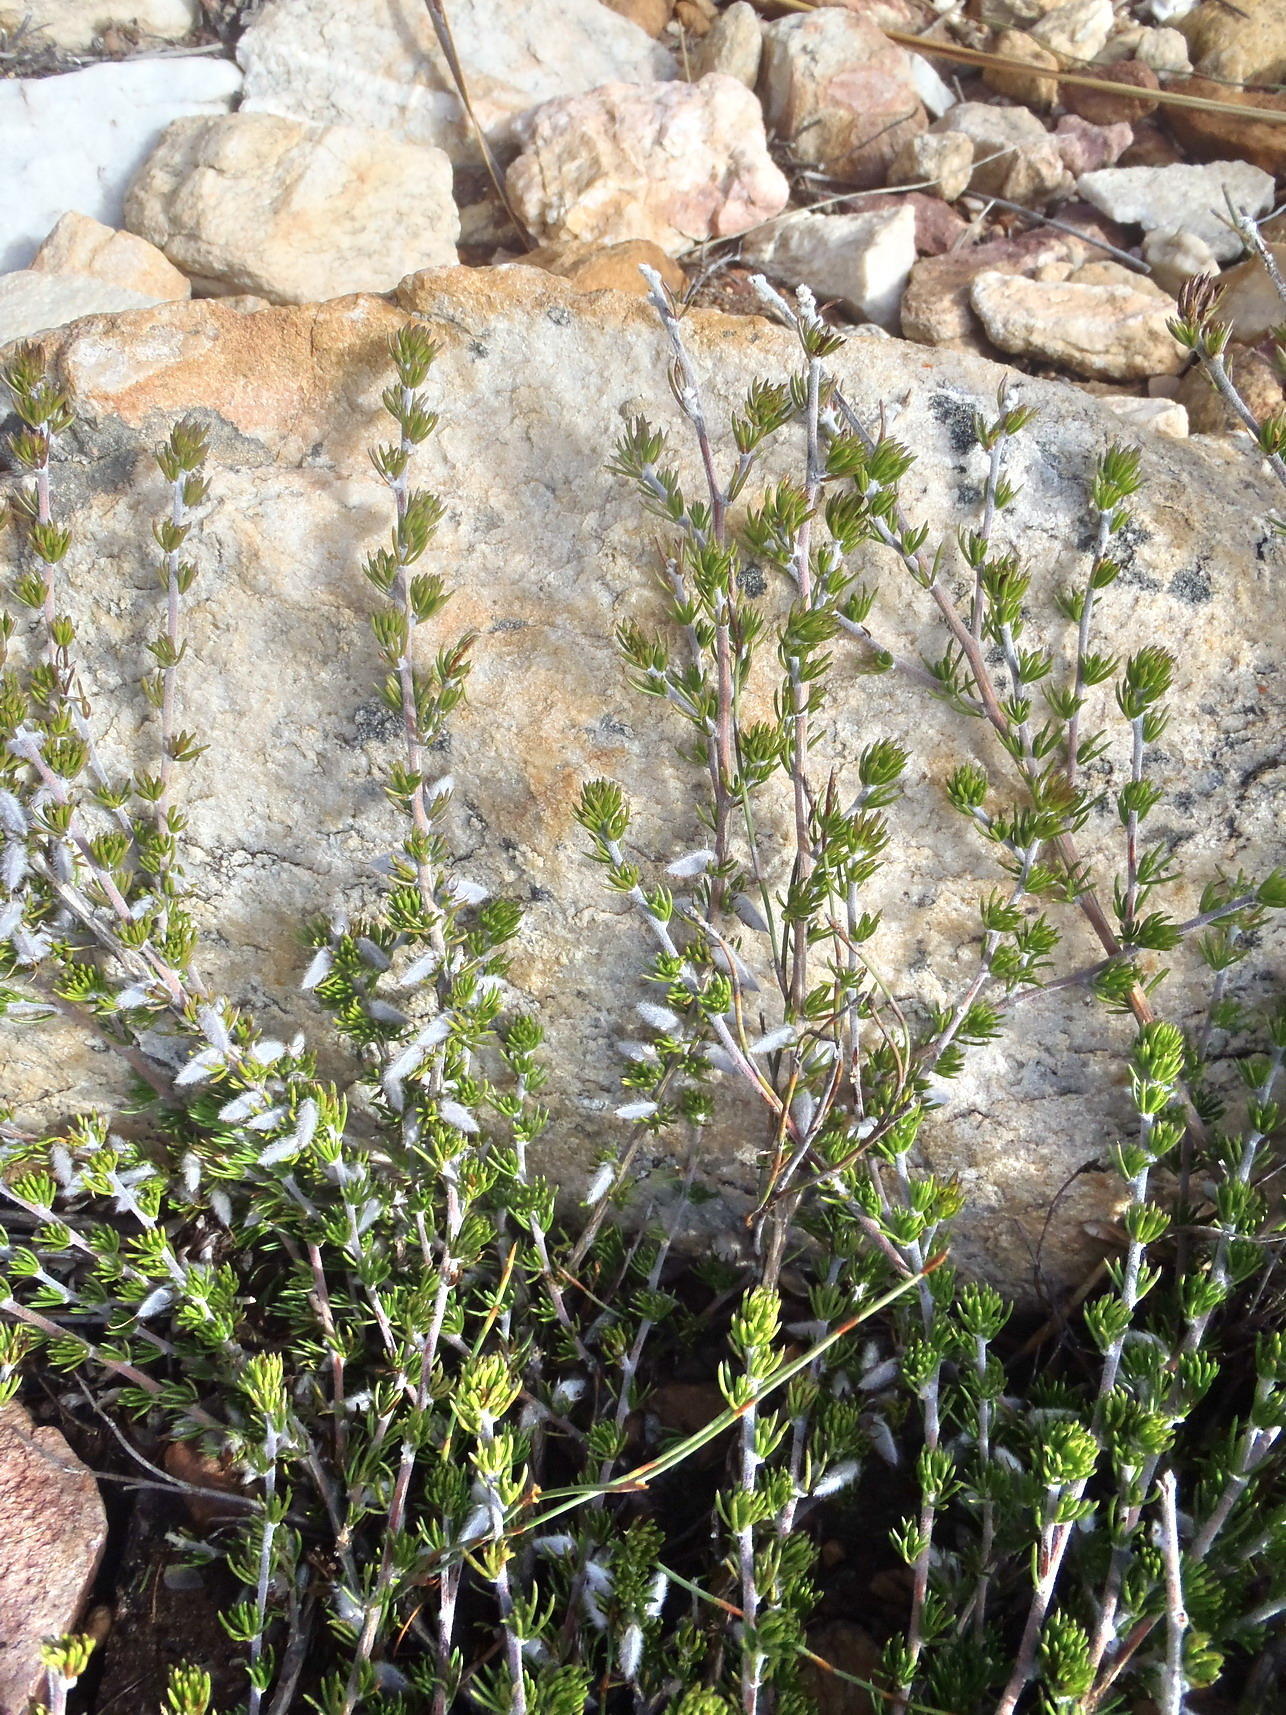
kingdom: Plantae
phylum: Tracheophyta
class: Magnoliopsida
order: Fabales
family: Fabaceae
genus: Aspalathus
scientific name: Aspalathus congesta
